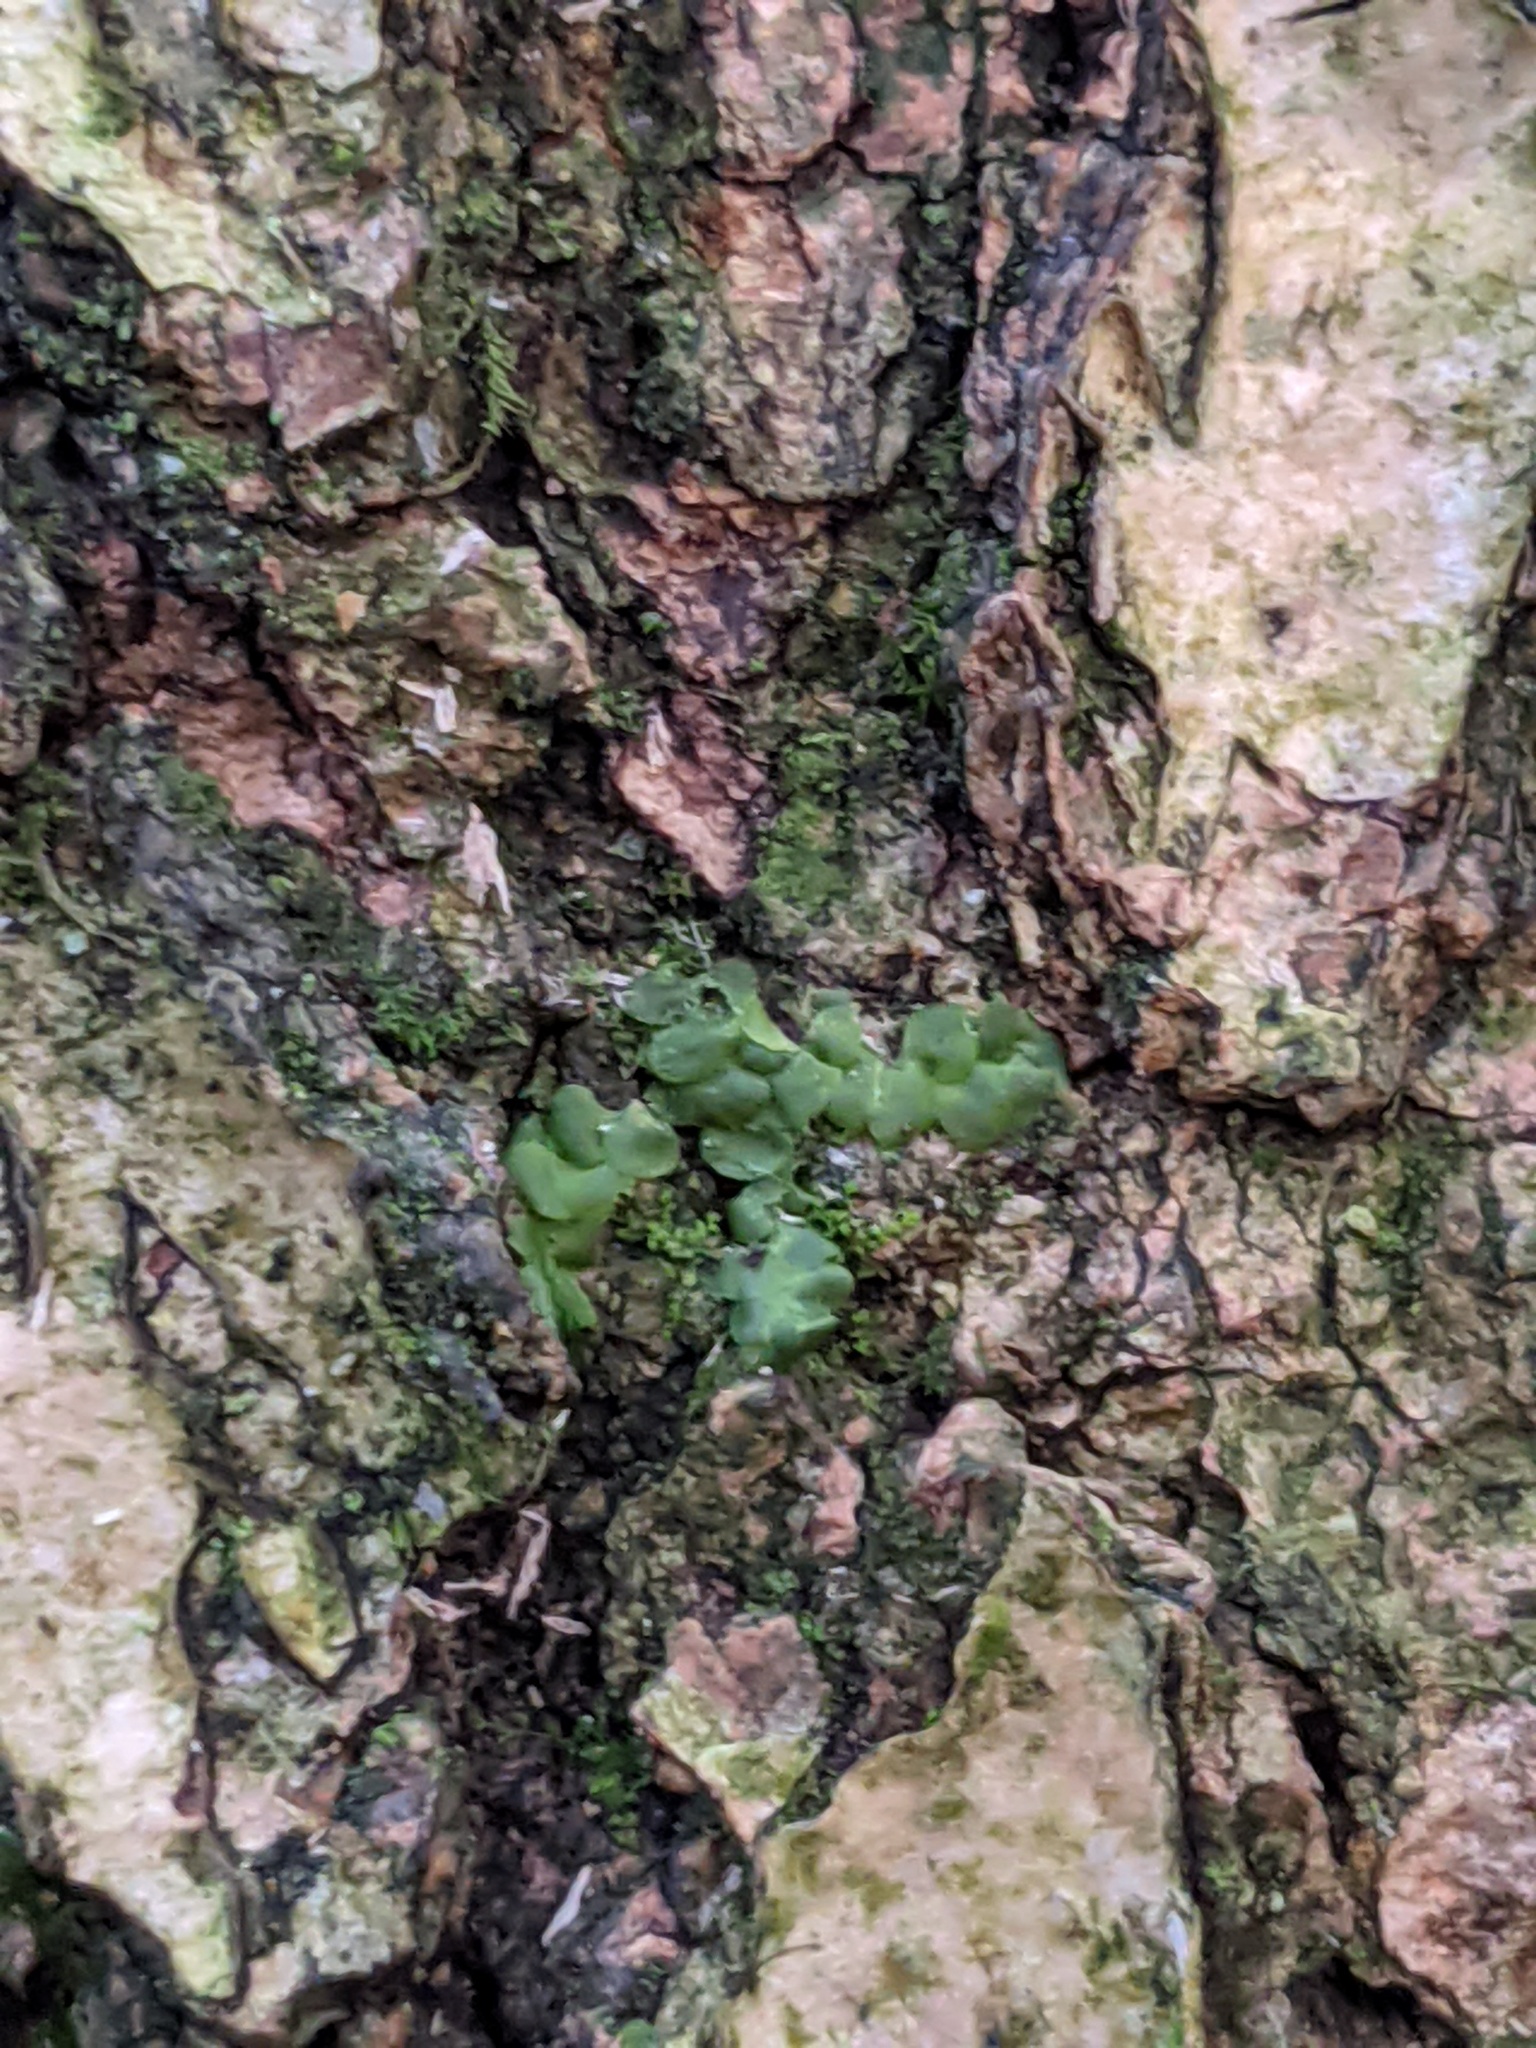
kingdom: Plantae
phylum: Marchantiophyta
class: Jungermanniopsida
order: Porellales
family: Radulaceae
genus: Radula
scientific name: Radula complanata
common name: Flat-leaved scalewort
